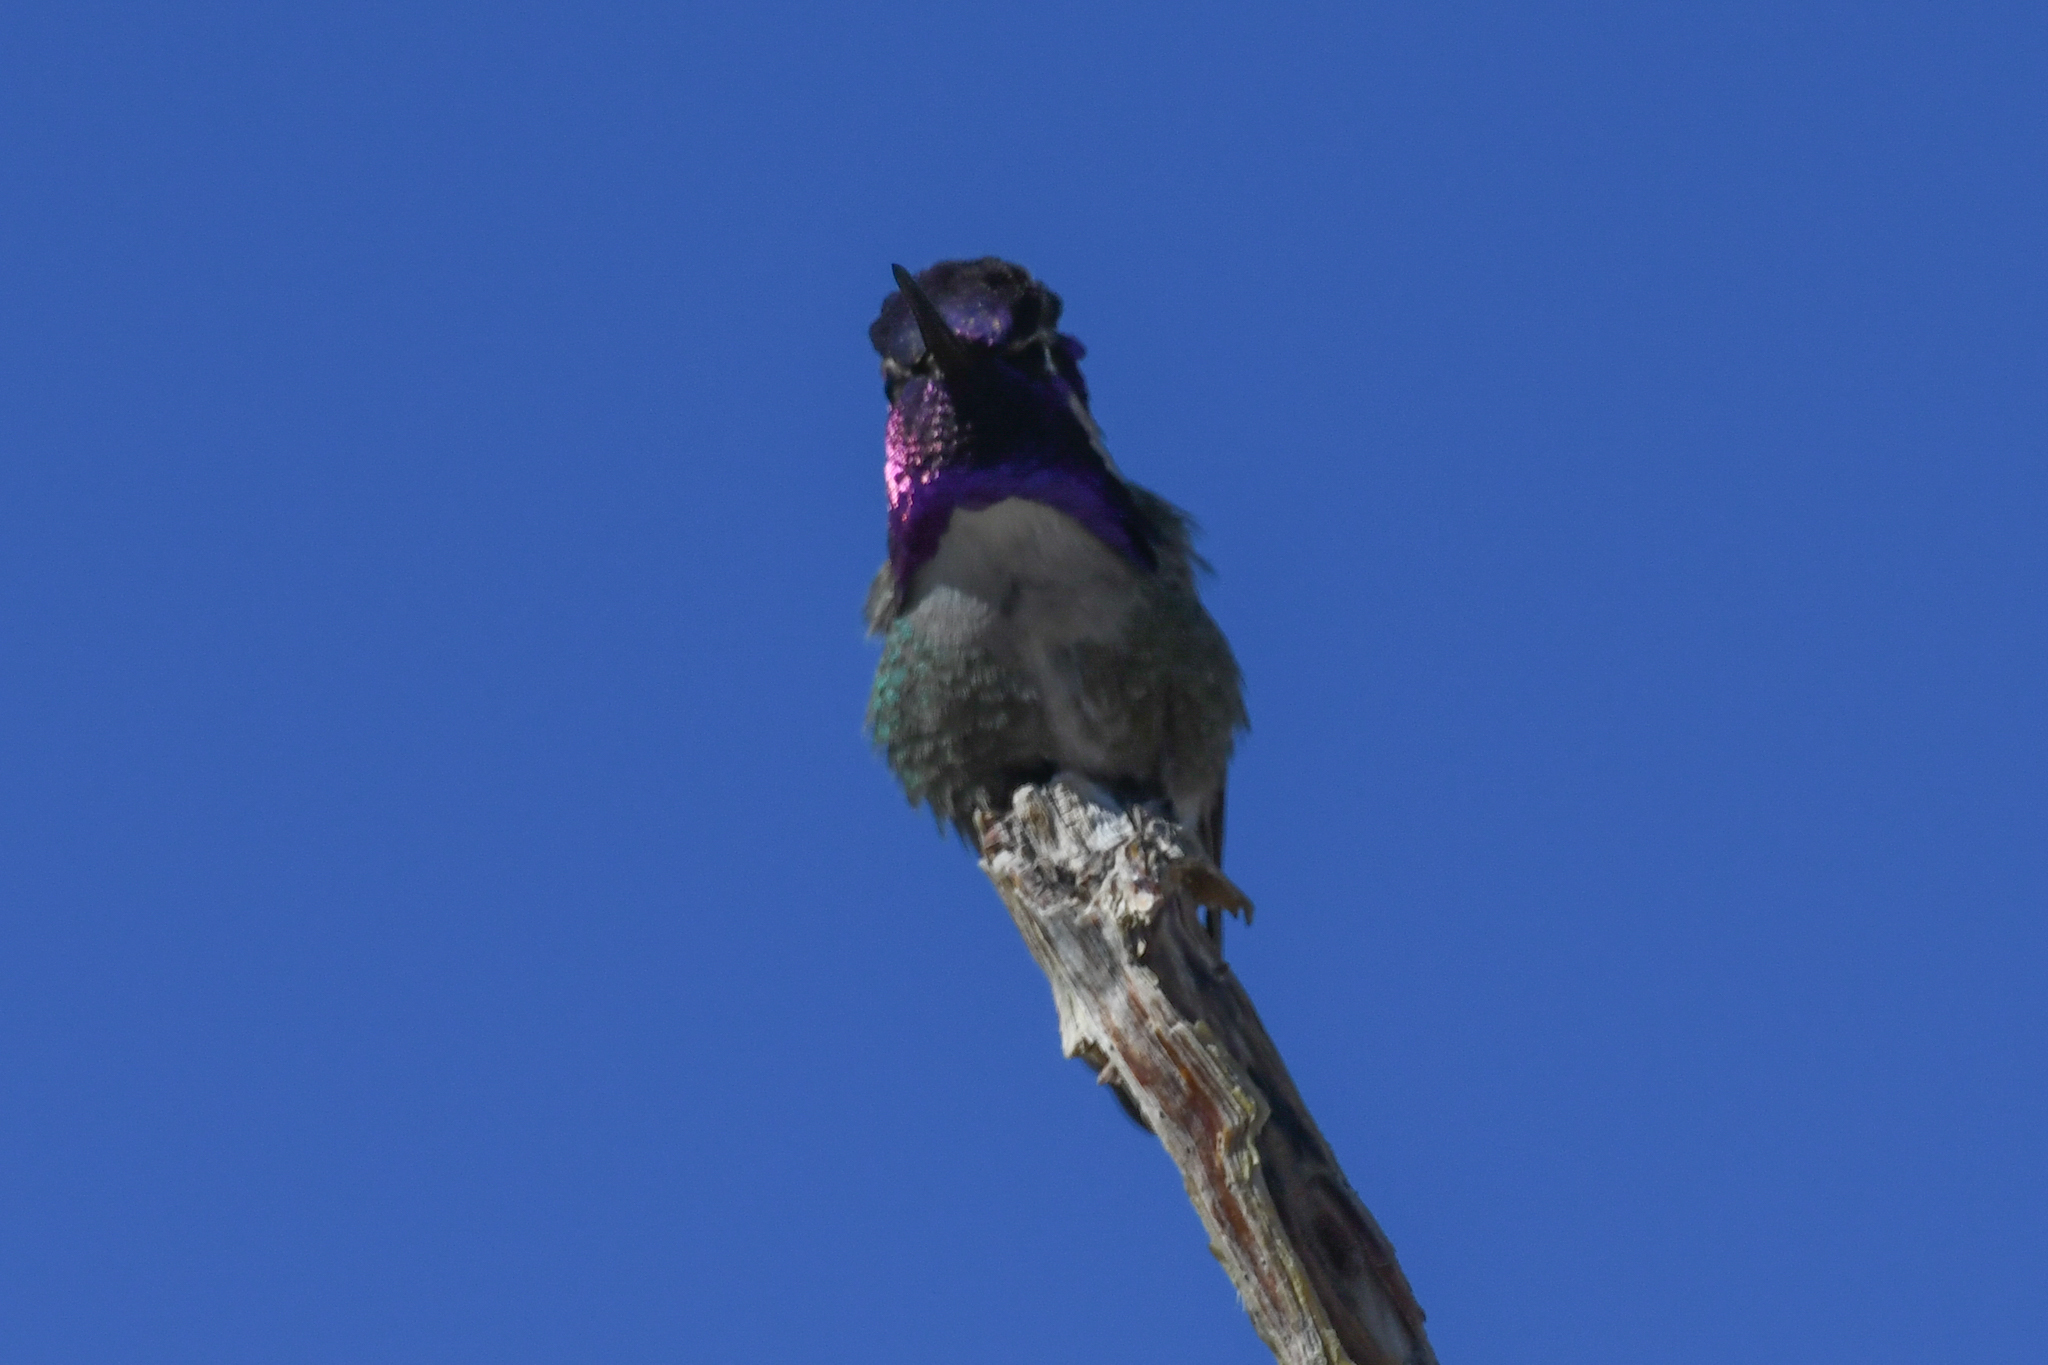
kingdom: Animalia
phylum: Chordata
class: Aves
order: Apodiformes
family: Trochilidae
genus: Calypte
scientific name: Calypte costae
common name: Costa's hummingbird
